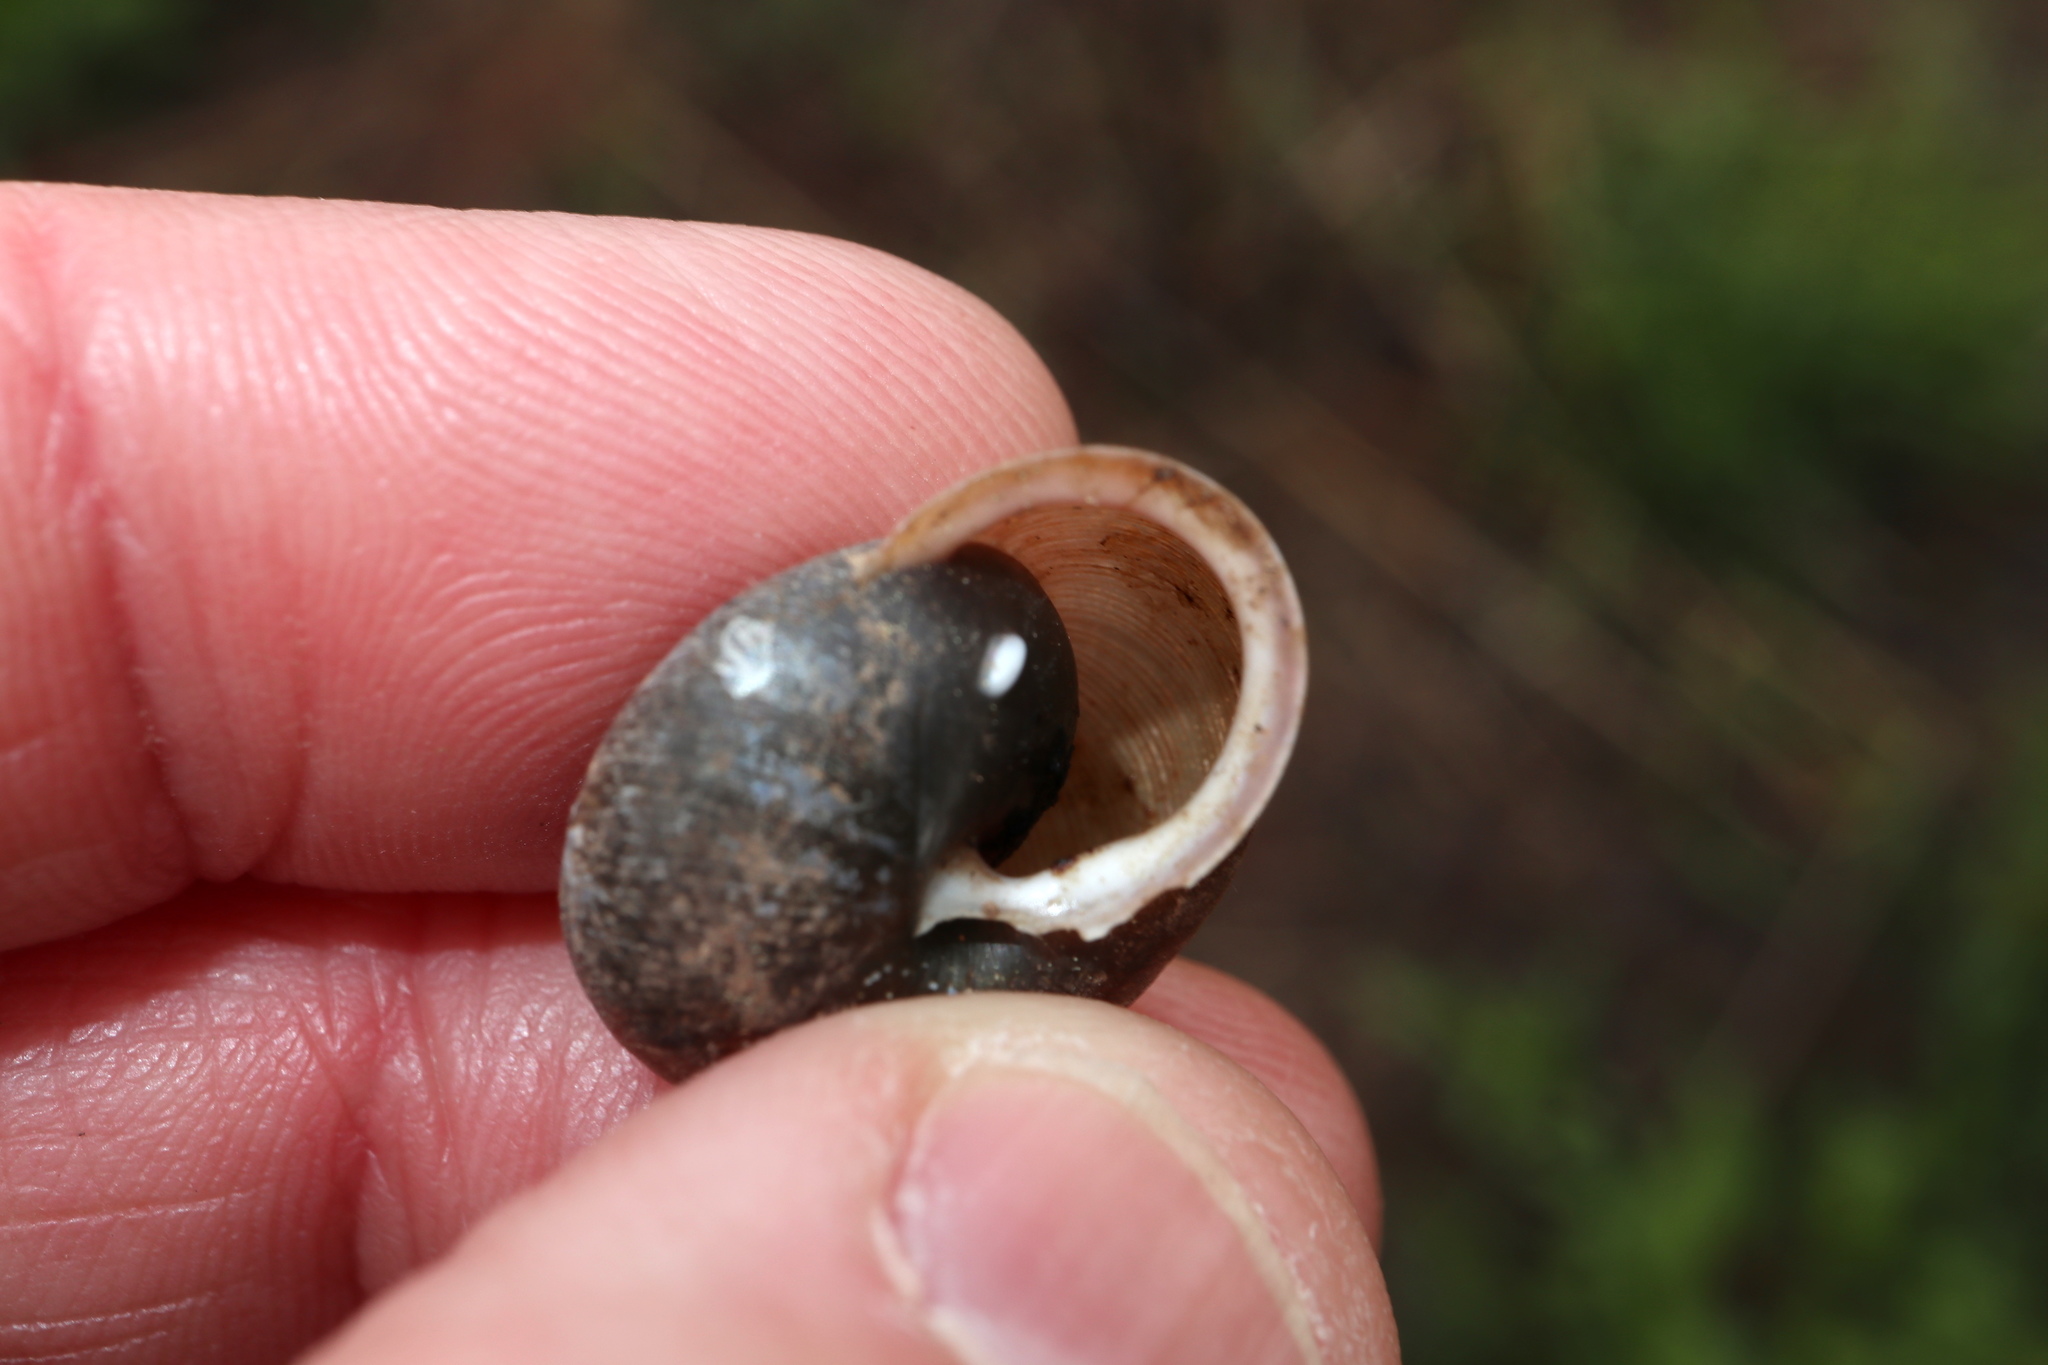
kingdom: Animalia
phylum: Mollusca
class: Gastropoda
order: Stylommatophora
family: Polygyridae
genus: Mesodon
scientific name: Mesodon thyroidus
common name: White-lip globe
